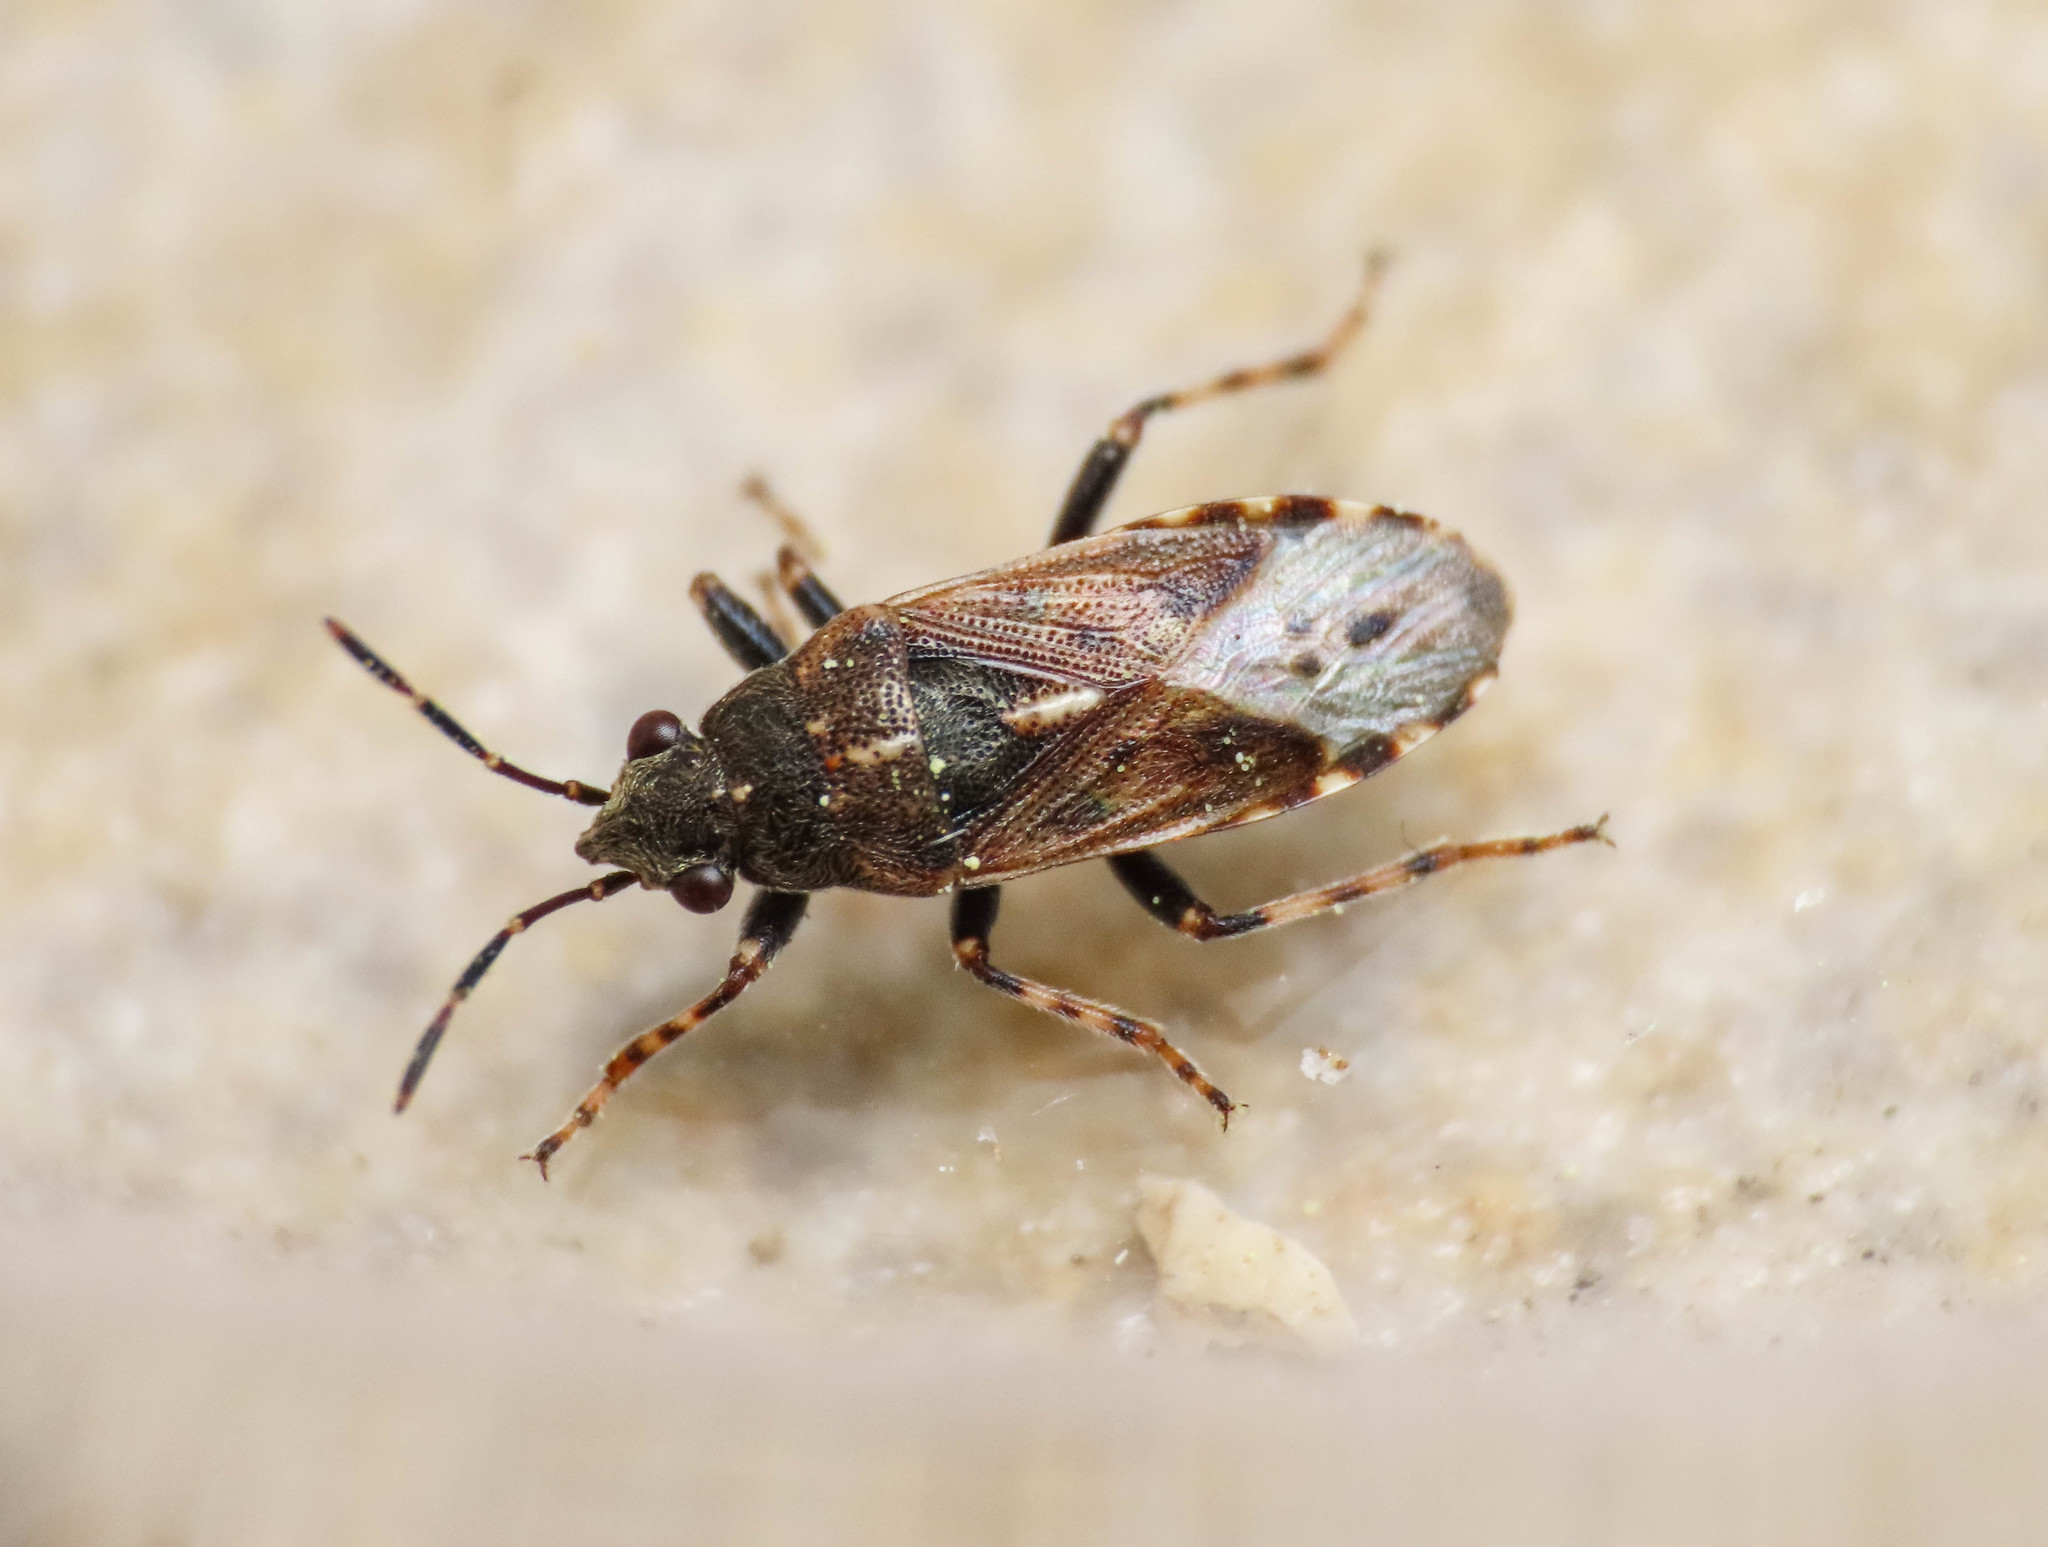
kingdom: Animalia
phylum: Arthropoda
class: Insecta
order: Hemiptera
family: Heterogastridae
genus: Heterogaster
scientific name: Heterogaster affinis
